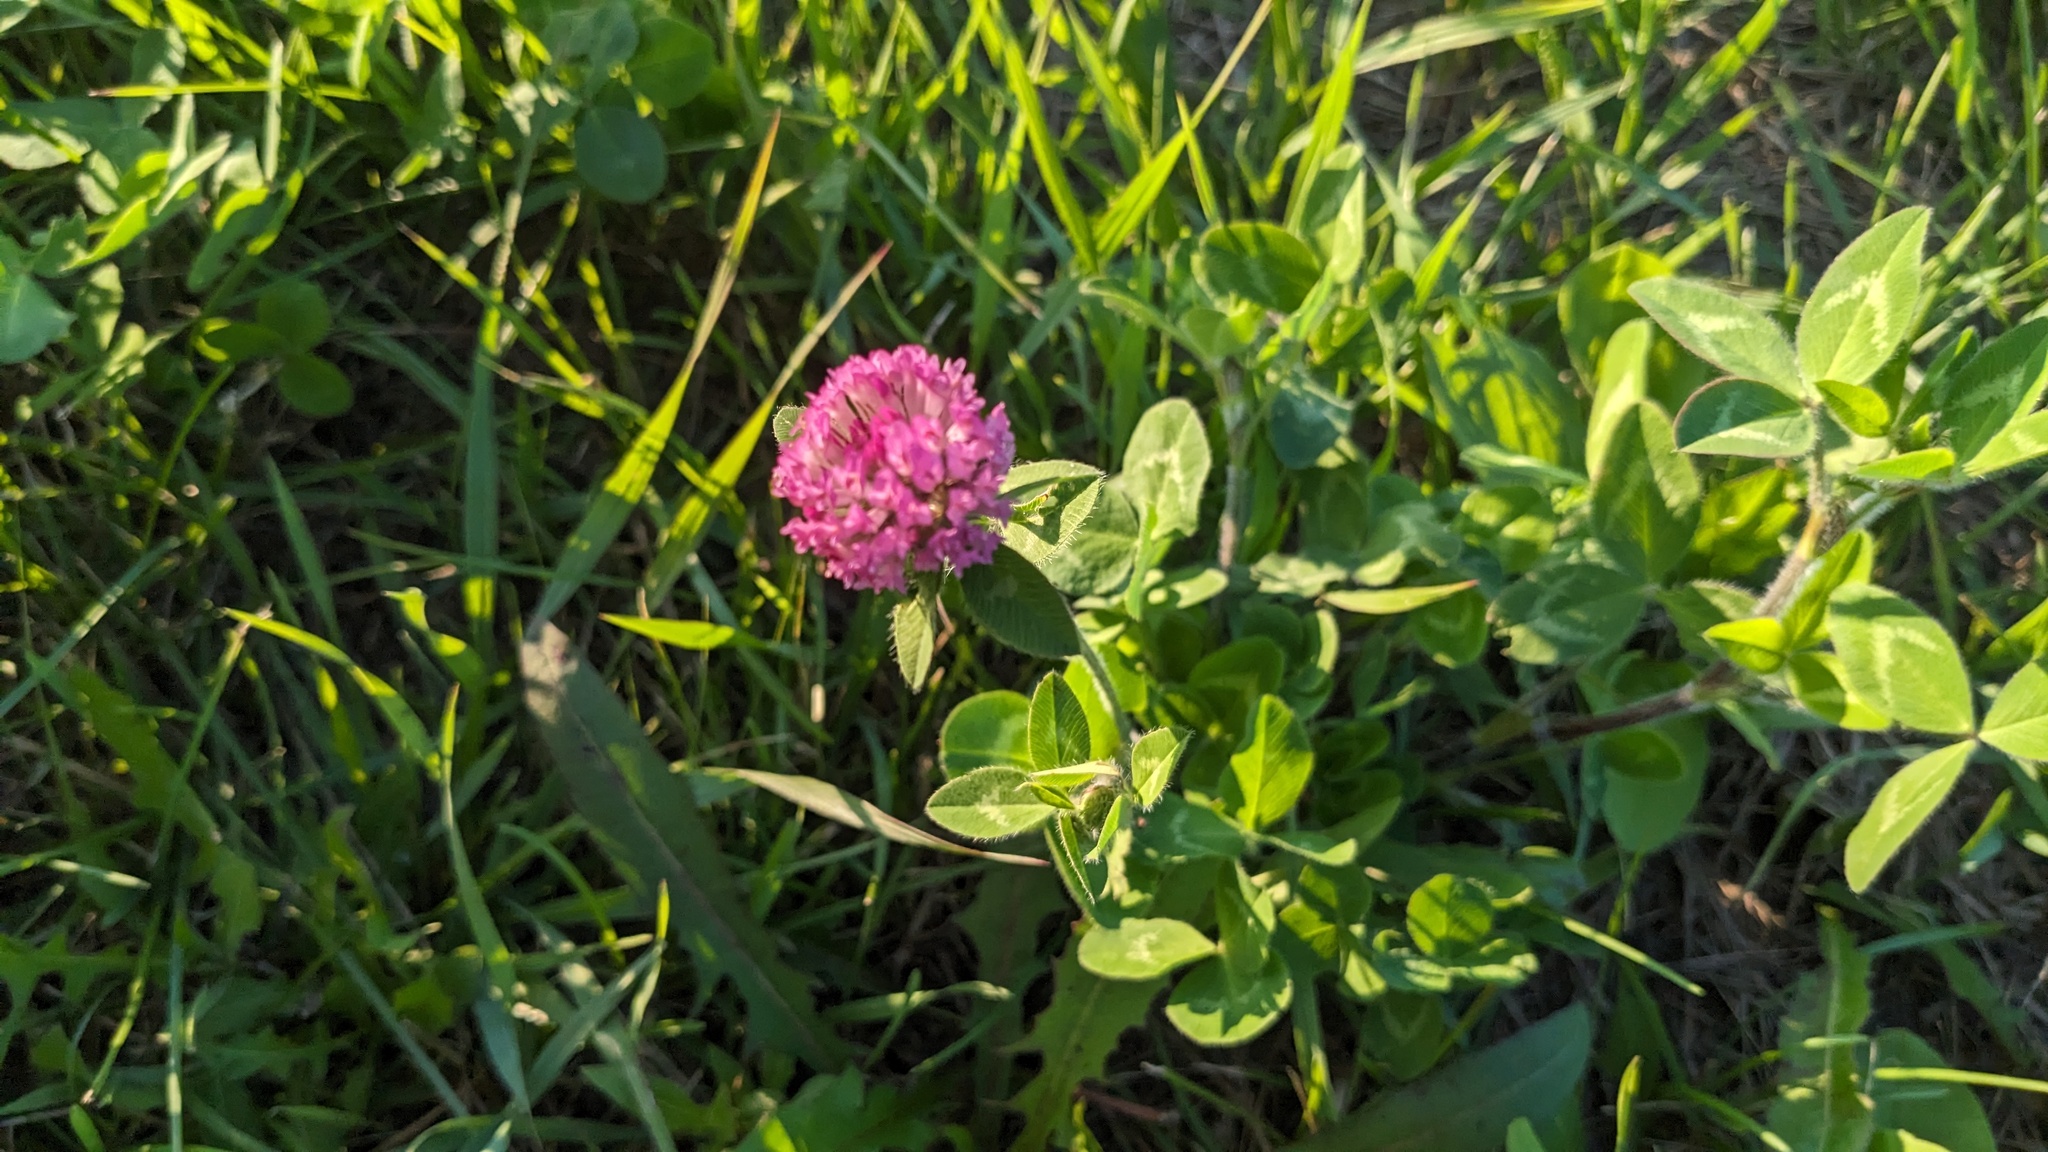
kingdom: Plantae
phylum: Tracheophyta
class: Magnoliopsida
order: Fabales
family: Fabaceae
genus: Trifolium
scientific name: Trifolium pratense
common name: Red clover
